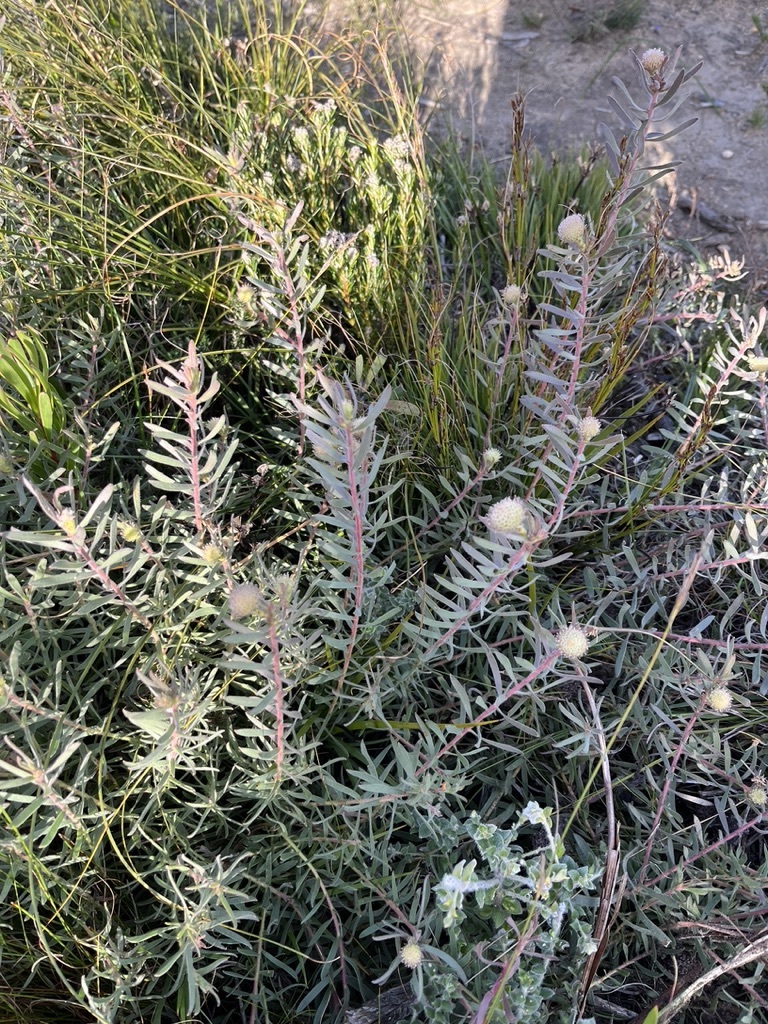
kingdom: Plantae
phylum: Tracheophyta
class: Magnoliopsida
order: Proteales
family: Proteaceae
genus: Leucospermum
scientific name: Leucospermum pedunculatum
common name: White-trailing pincushion
